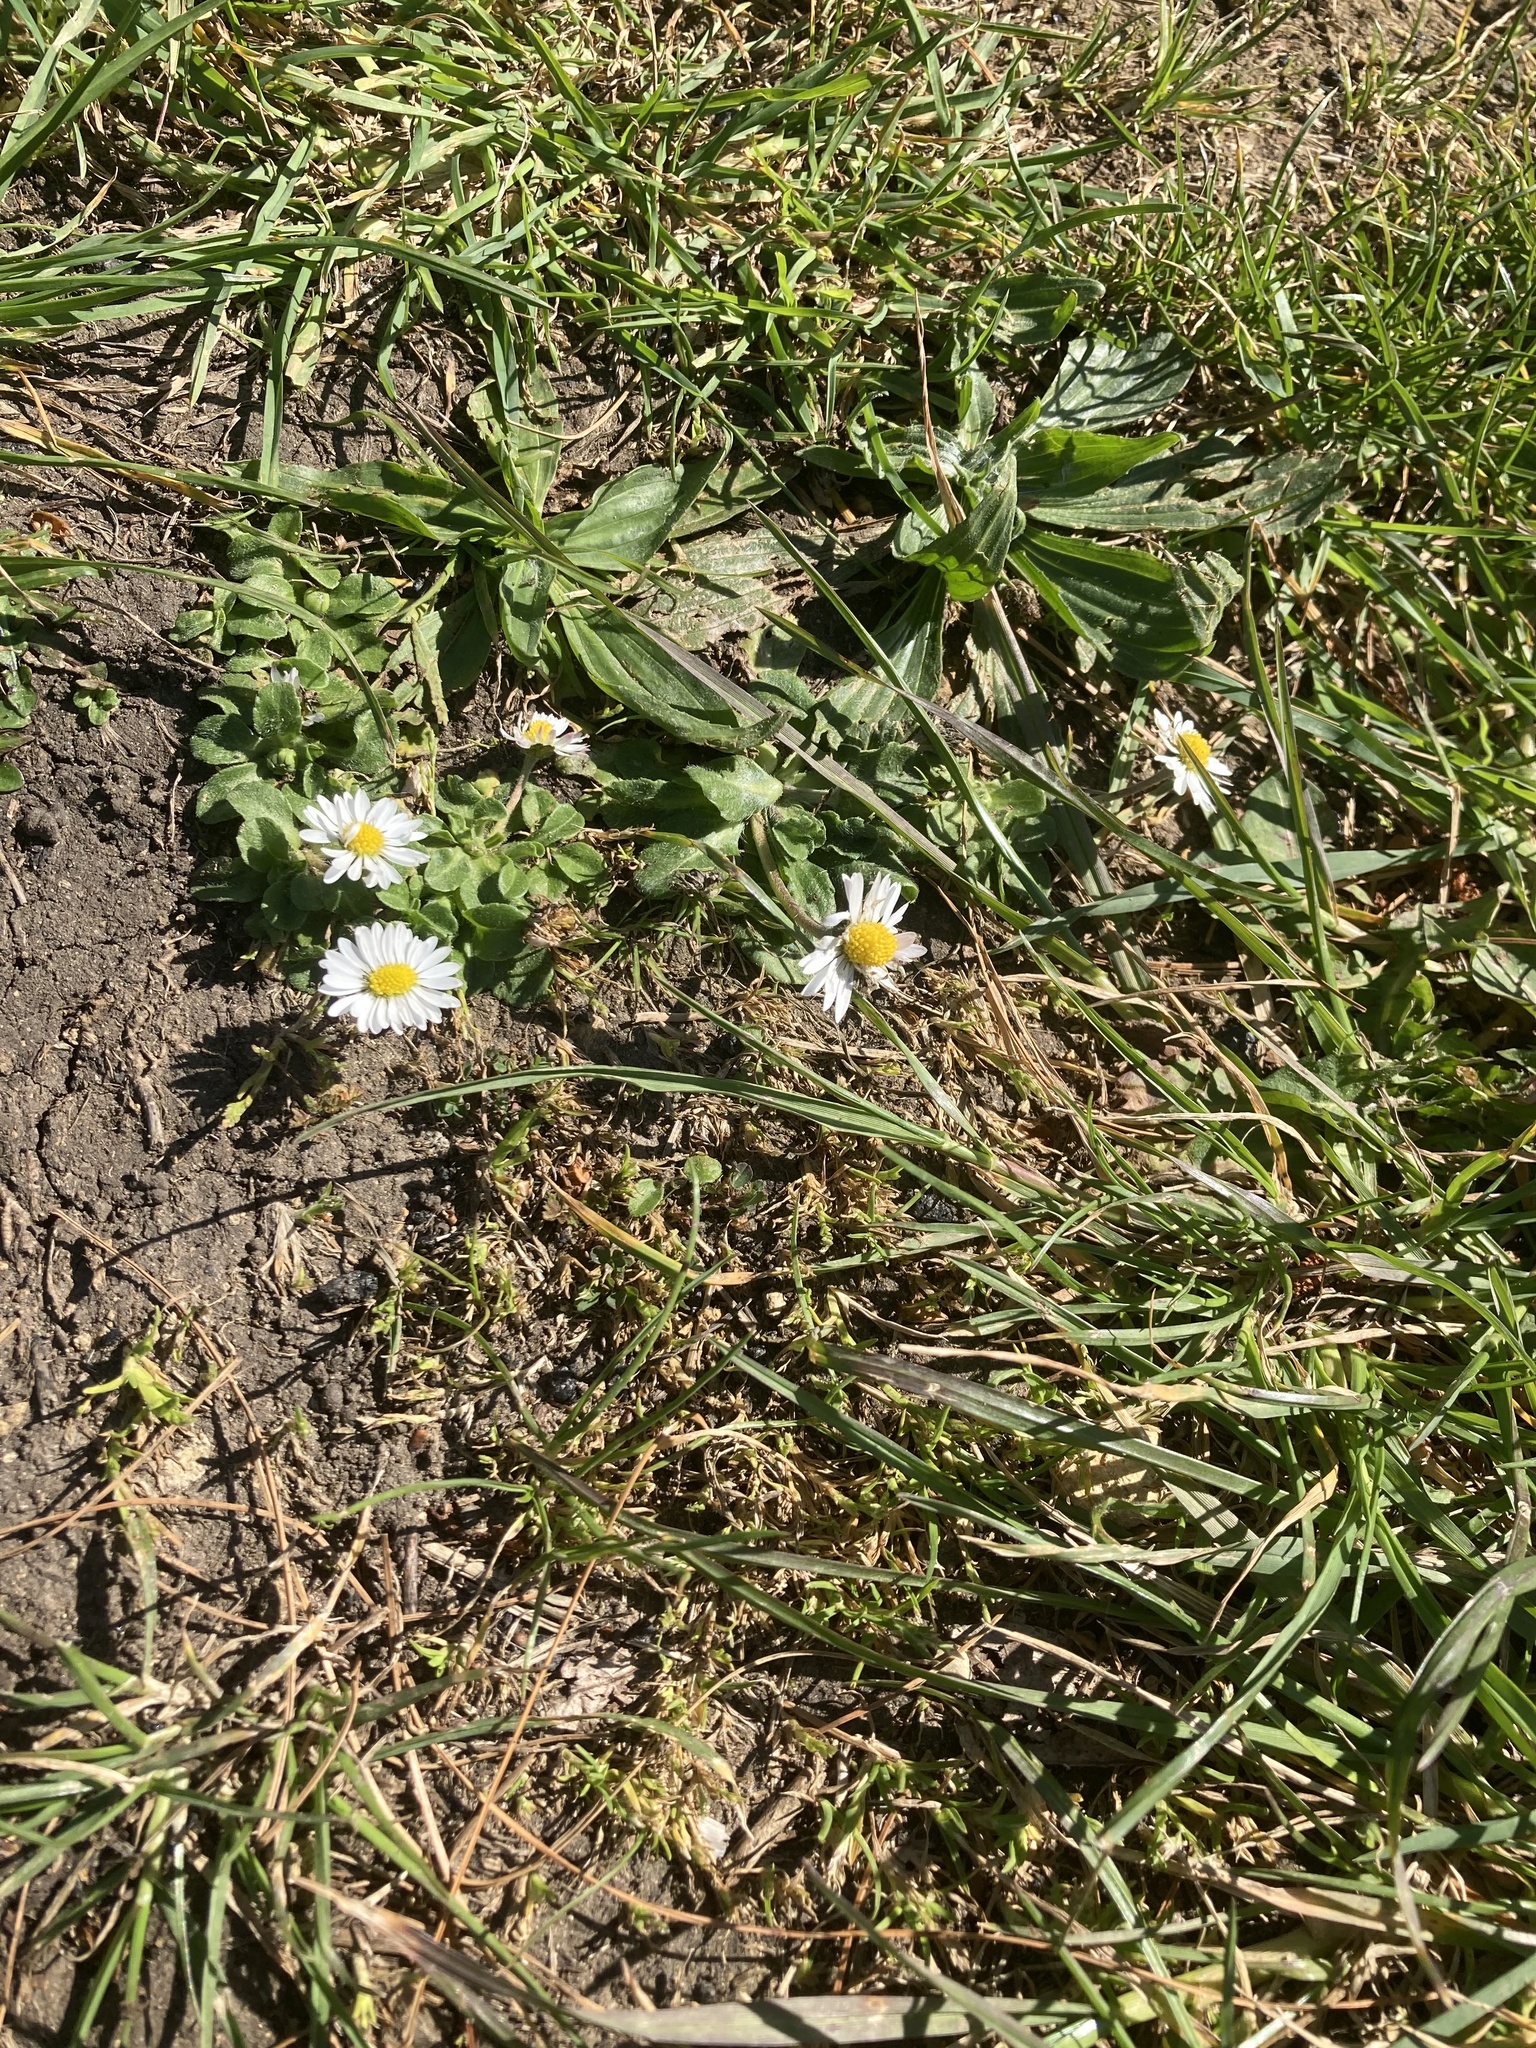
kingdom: Plantae
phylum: Tracheophyta
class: Magnoliopsida
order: Asterales
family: Asteraceae
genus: Bellis
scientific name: Bellis perennis
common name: Lawndaisy
